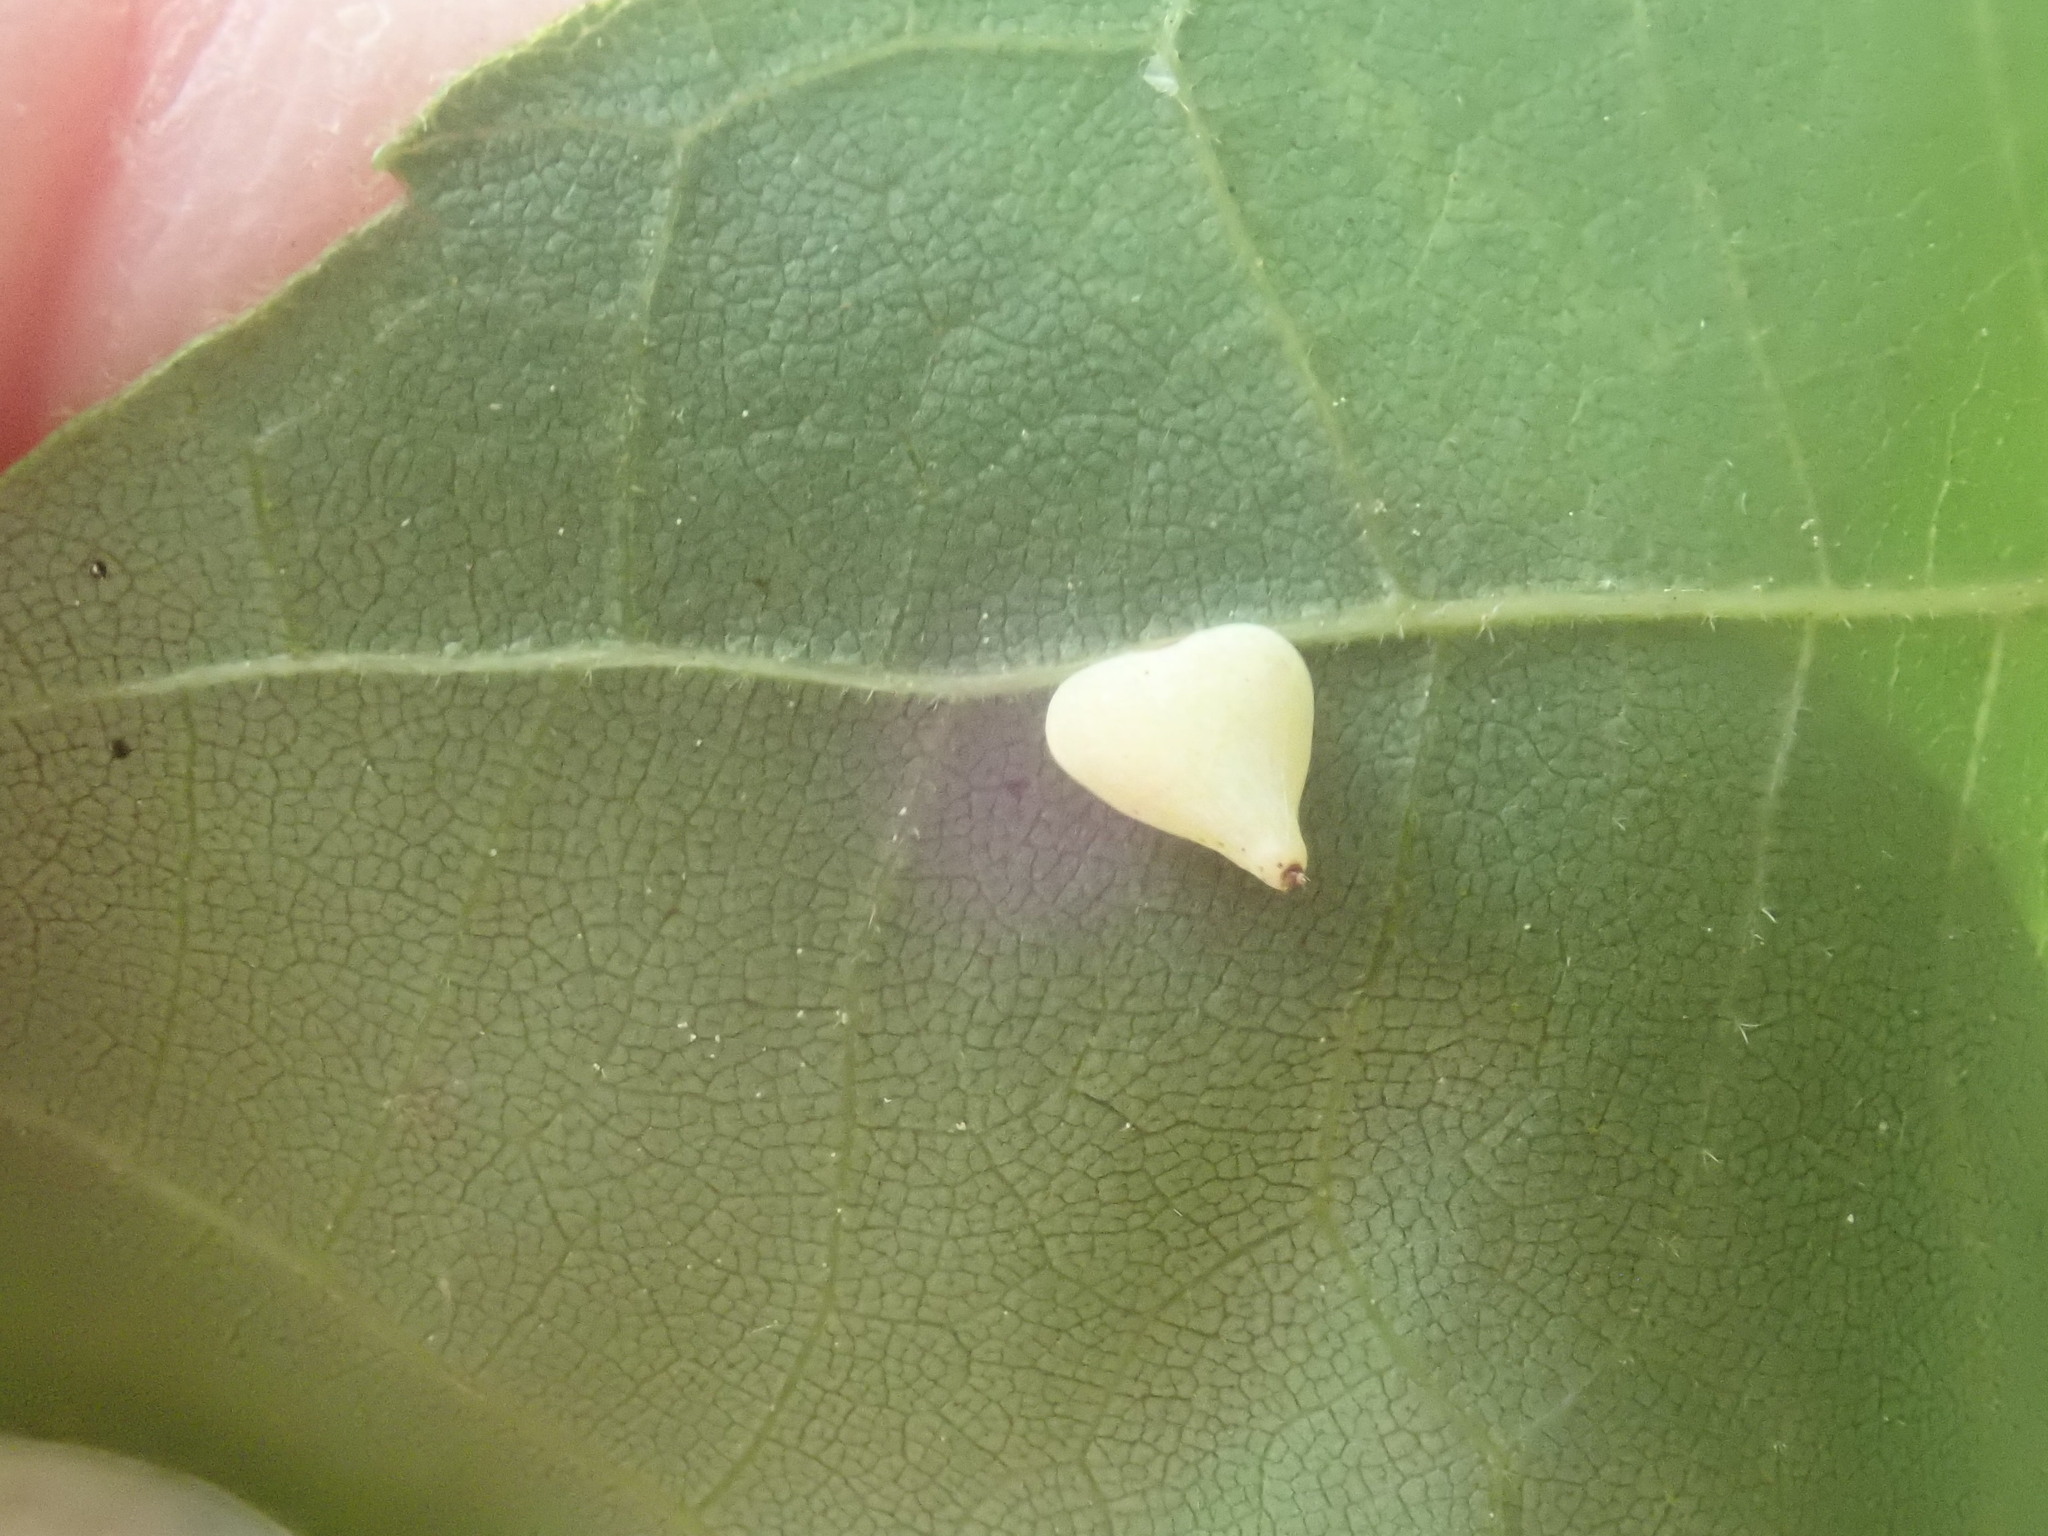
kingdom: Animalia
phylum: Arthropoda
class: Insecta
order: Diptera
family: Cecidomyiidae
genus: Caryomyia
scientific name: Caryomyia caryaecola
